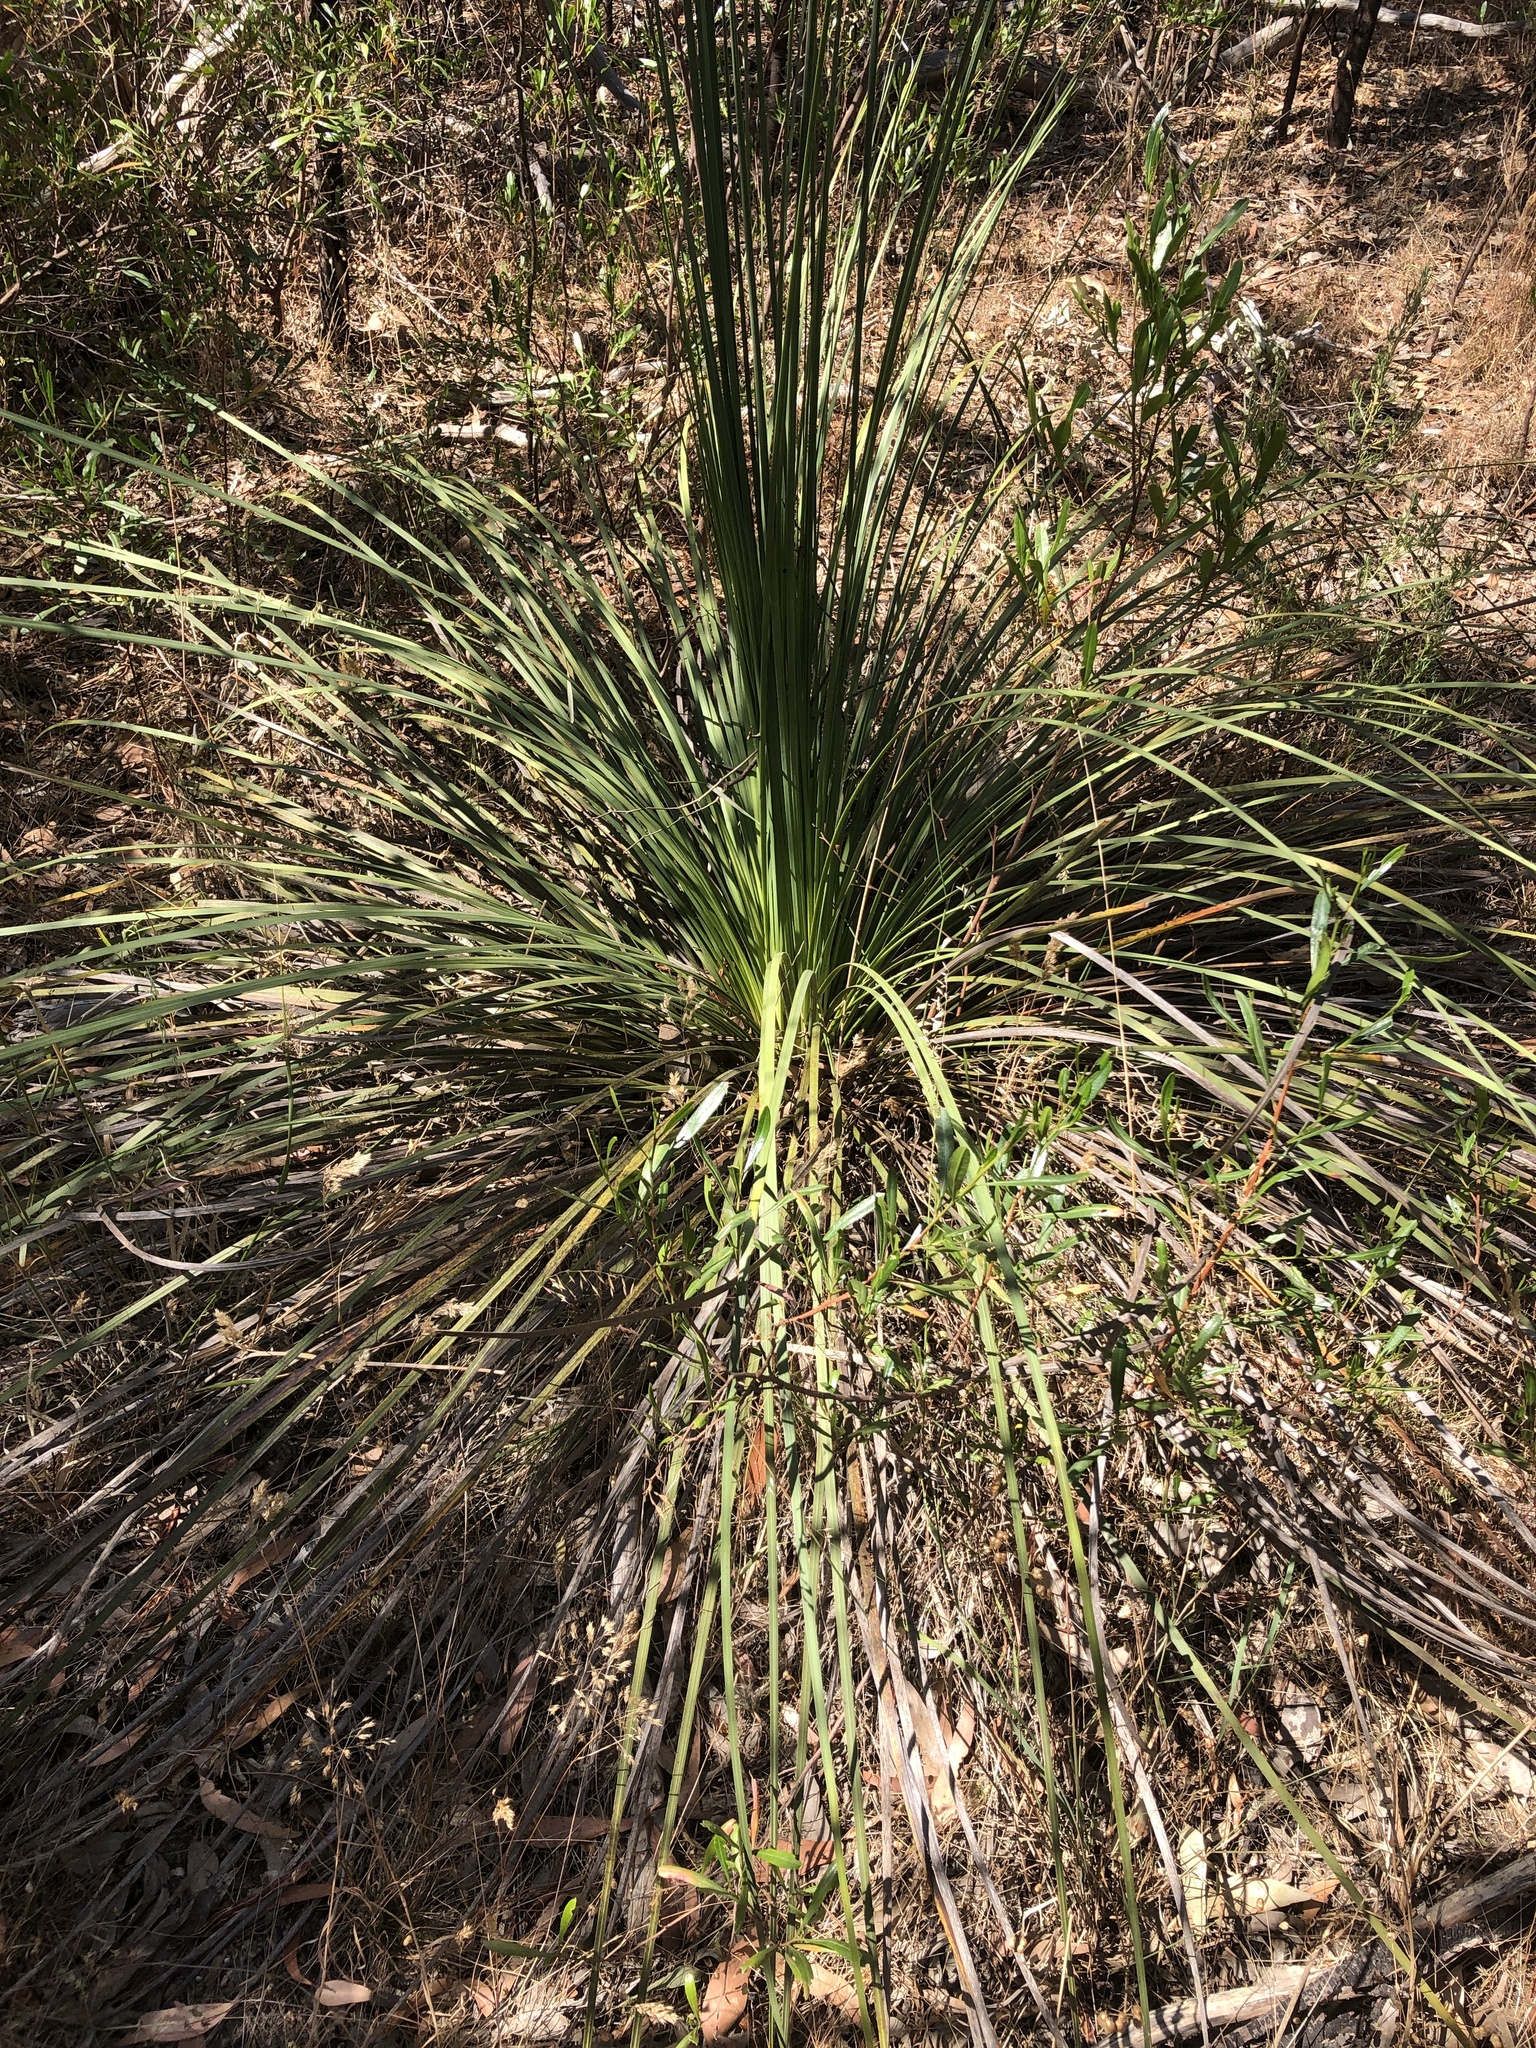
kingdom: Plantae
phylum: Tracheophyta
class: Liliopsida
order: Asparagales
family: Asphodelaceae
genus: Xanthorrhoea
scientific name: Xanthorrhoea semiplana
